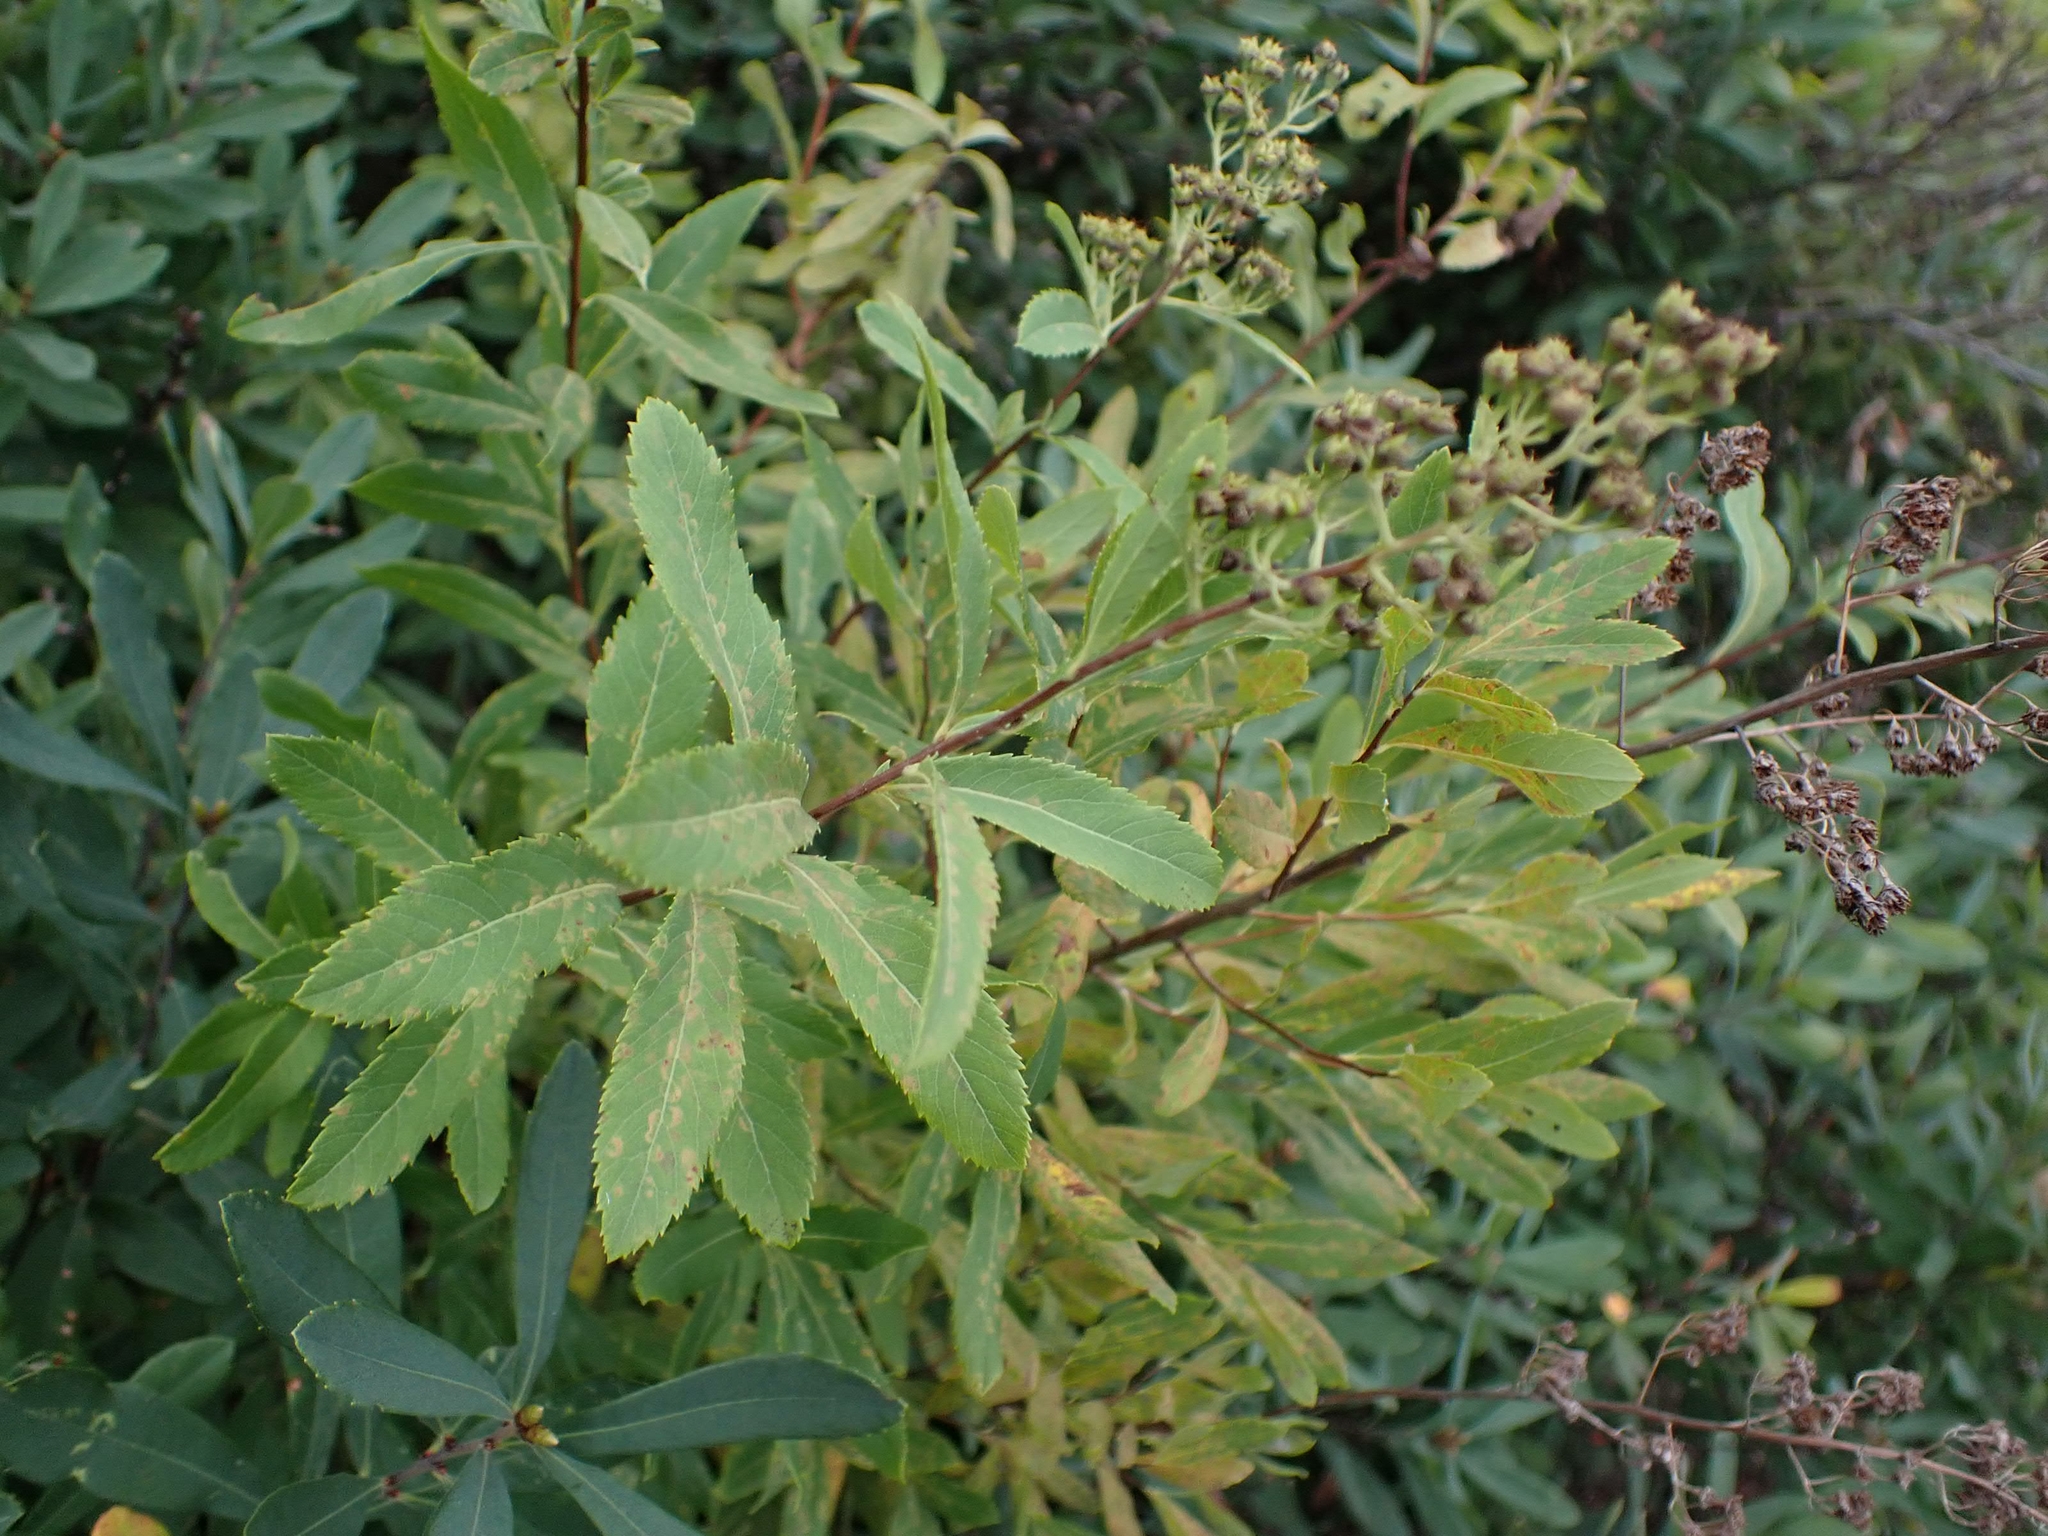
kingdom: Plantae
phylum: Tracheophyta
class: Magnoliopsida
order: Rosales
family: Rosaceae
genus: Spiraea
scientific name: Spiraea alba
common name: Pale bridewort
